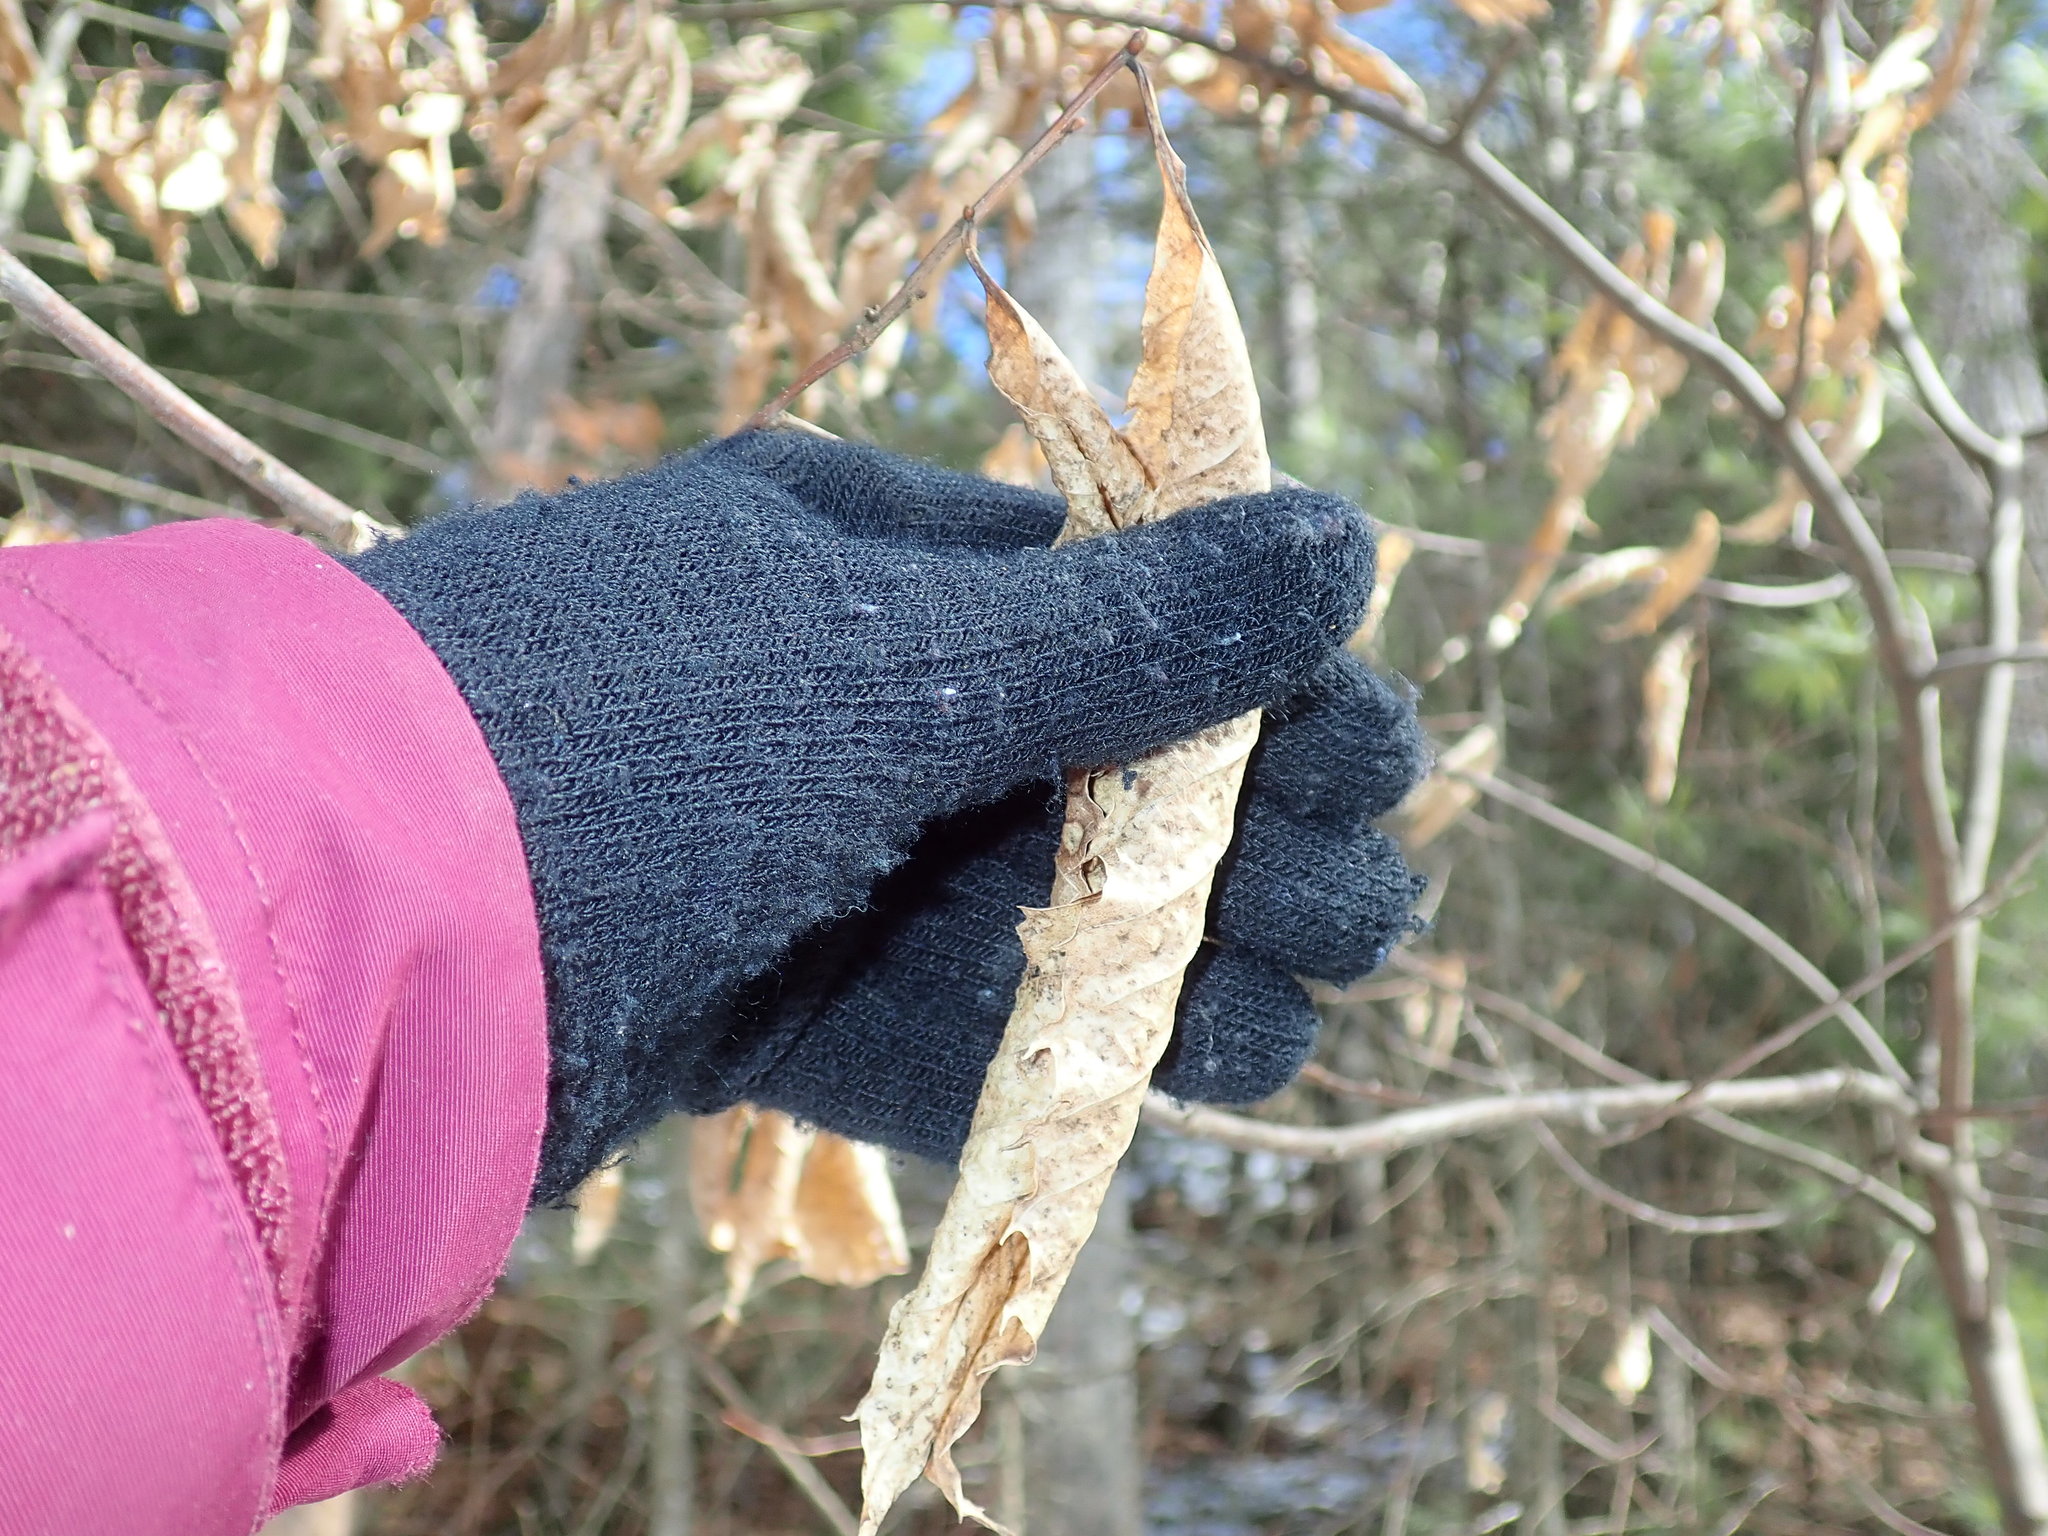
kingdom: Plantae
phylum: Tracheophyta
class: Magnoliopsida
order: Fagales
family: Fagaceae
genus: Castanea
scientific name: Castanea dentata
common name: American chestnut
